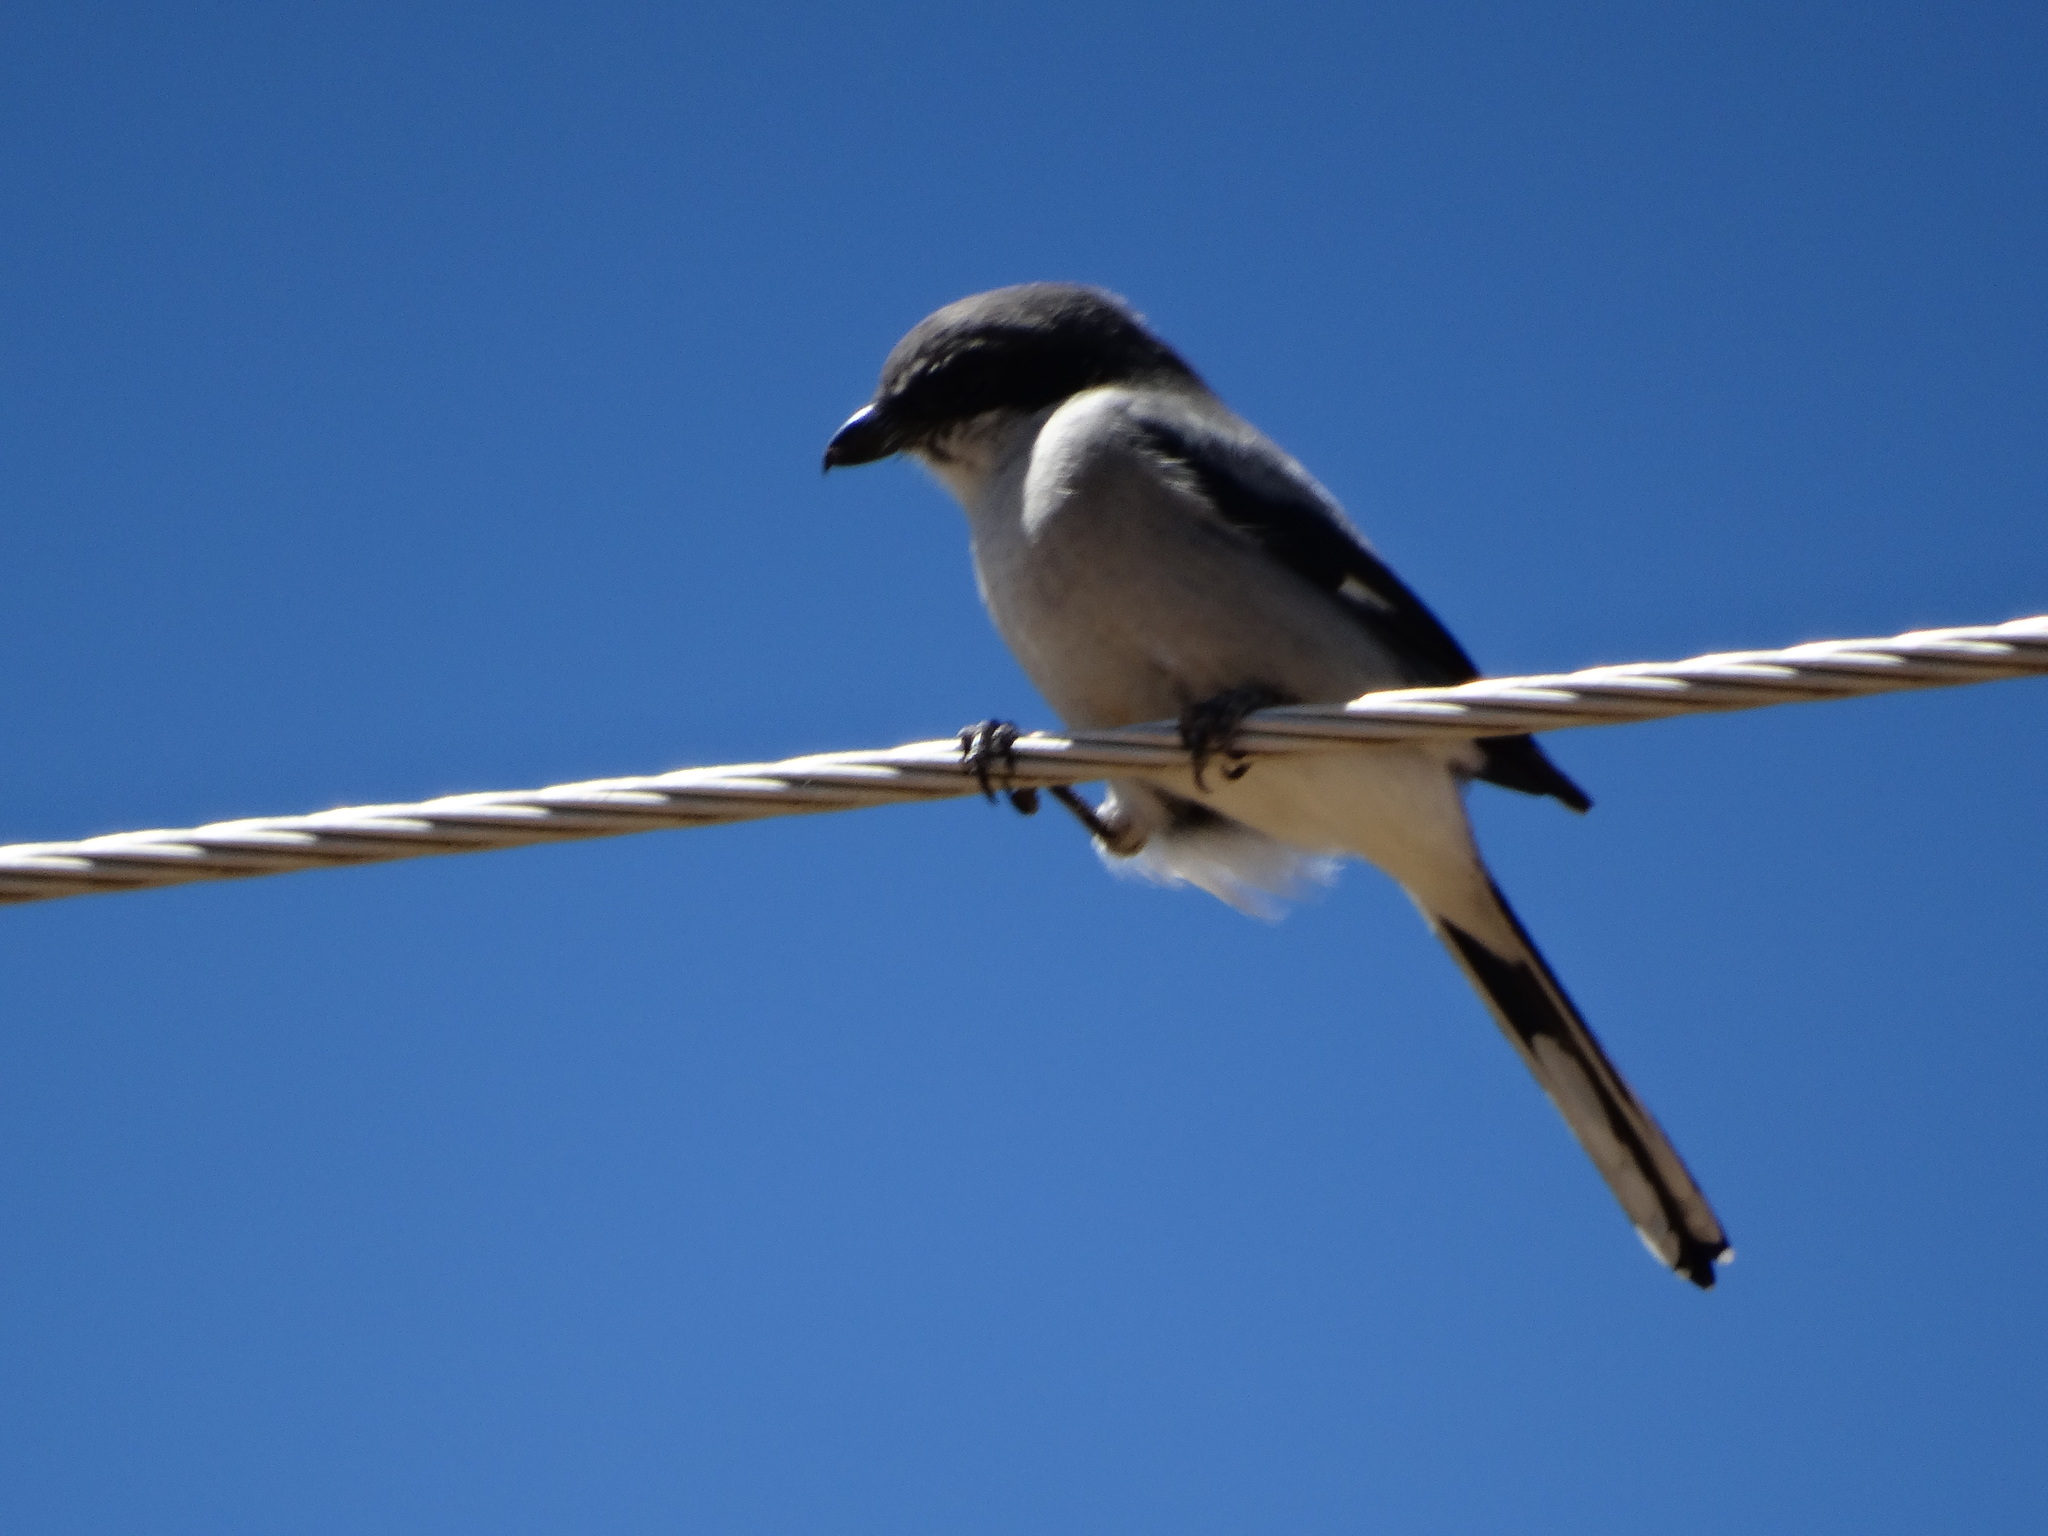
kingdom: Animalia
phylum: Chordata
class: Aves
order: Passeriformes
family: Laniidae
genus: Lanius
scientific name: Lanius ludovicianus
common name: Loggerhead shrike
